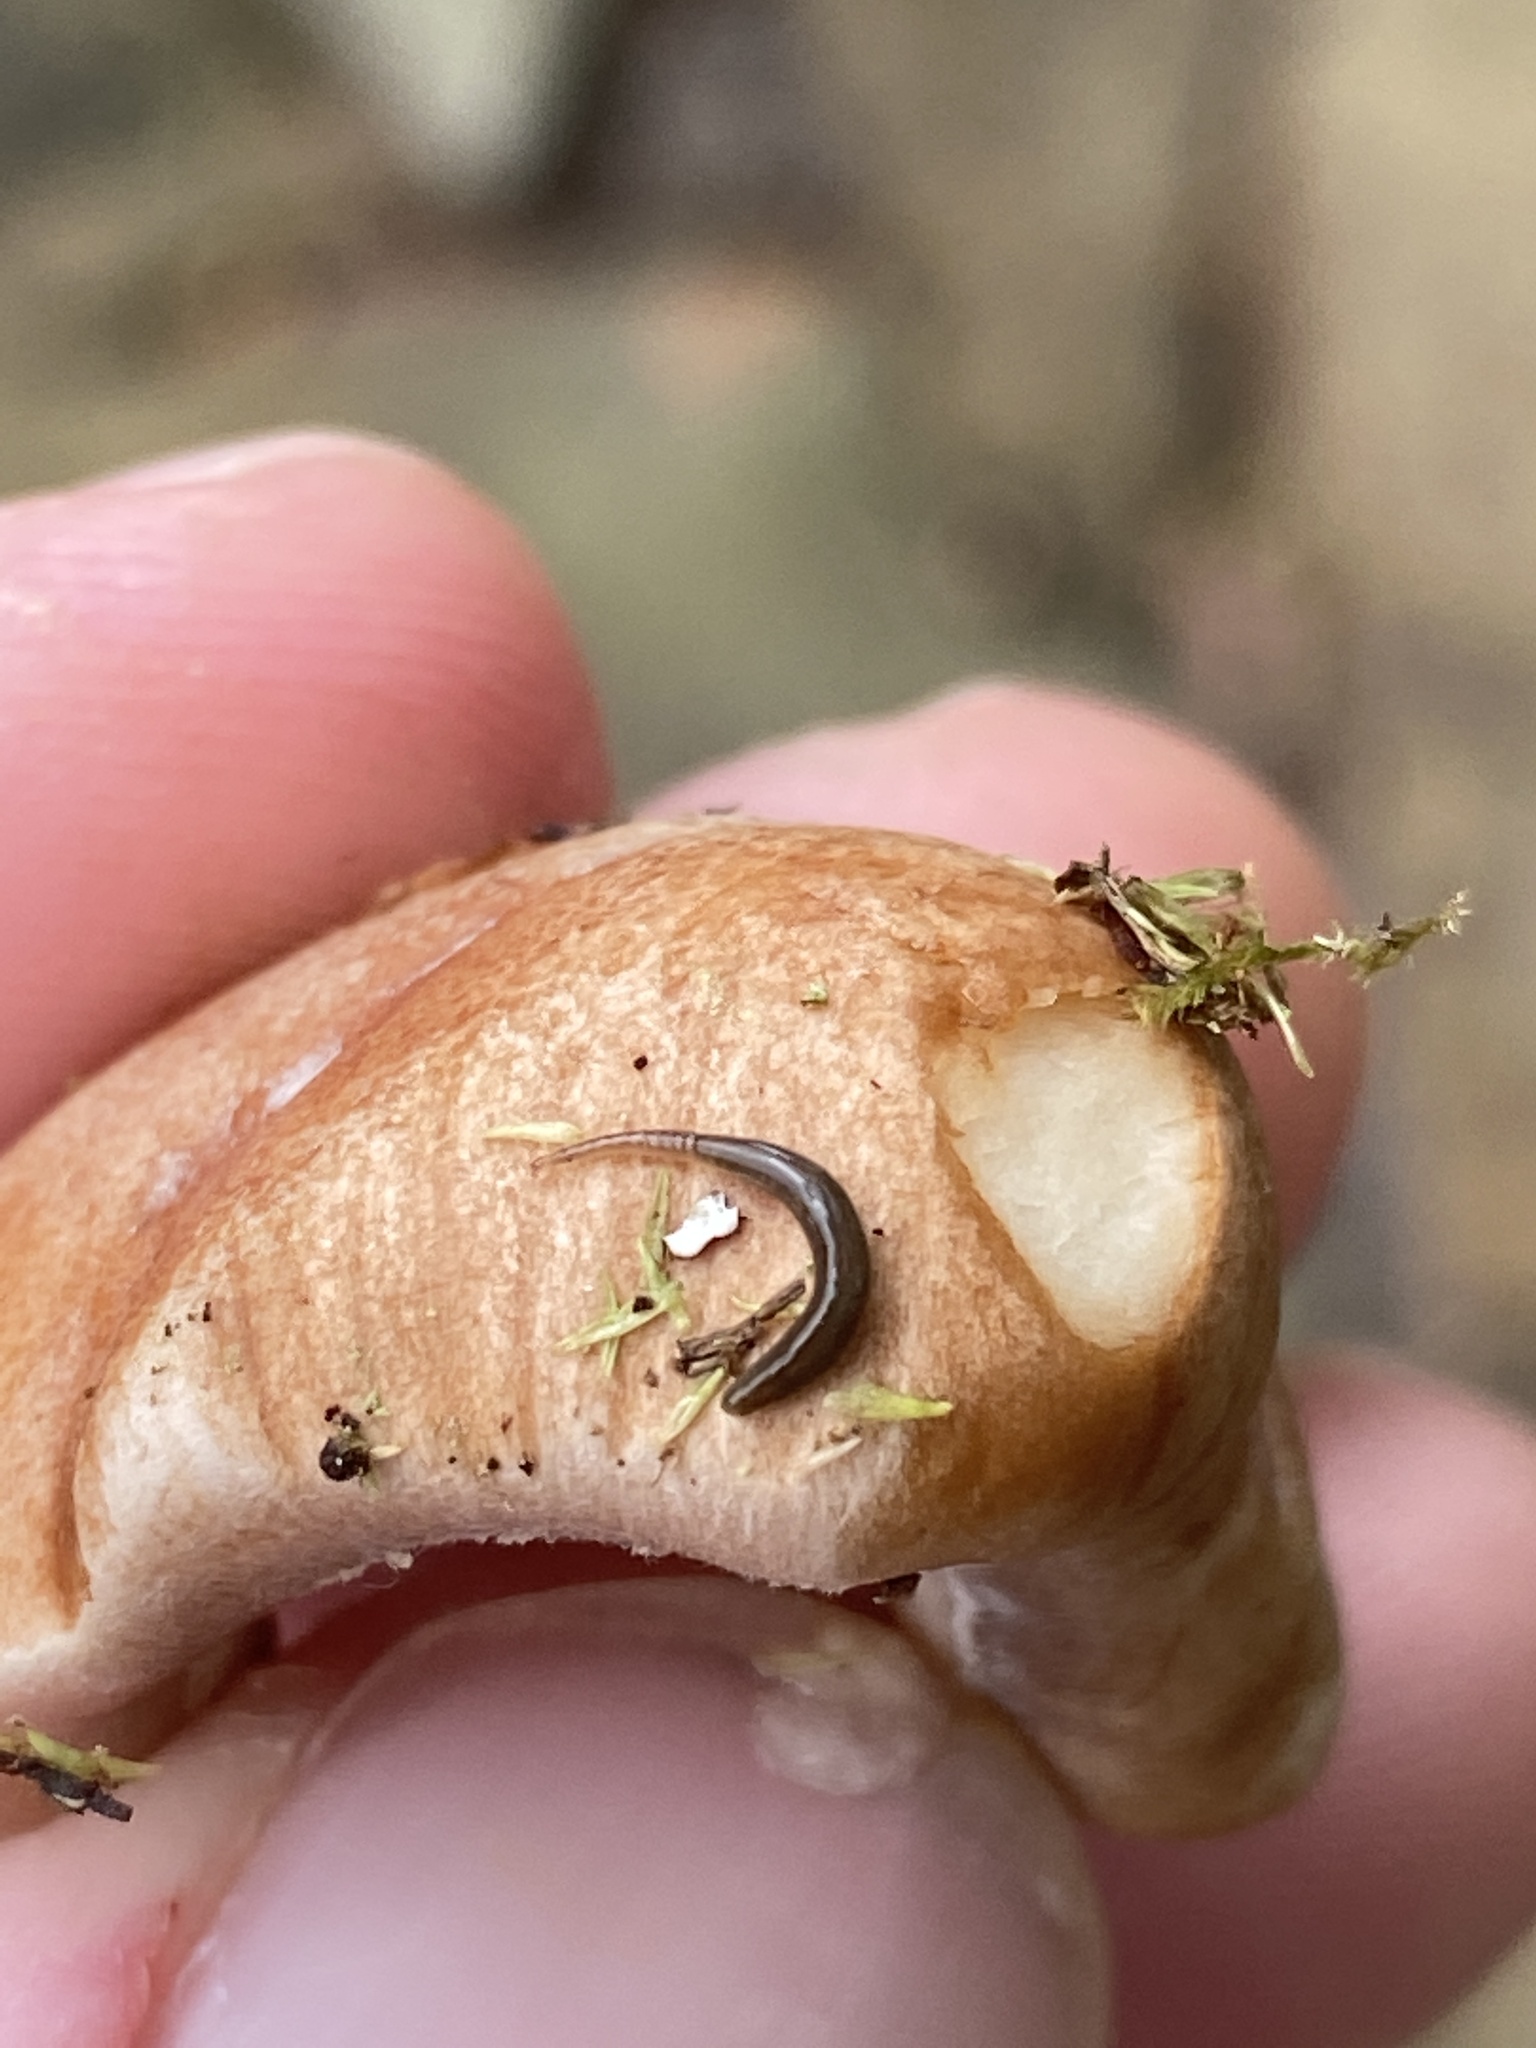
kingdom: Animalia
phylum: Platyhelminthes
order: Tricladida
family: Geoplanidae
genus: Rhynchodemus
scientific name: Rhynchodemus sylvaticus
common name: A flatworm
